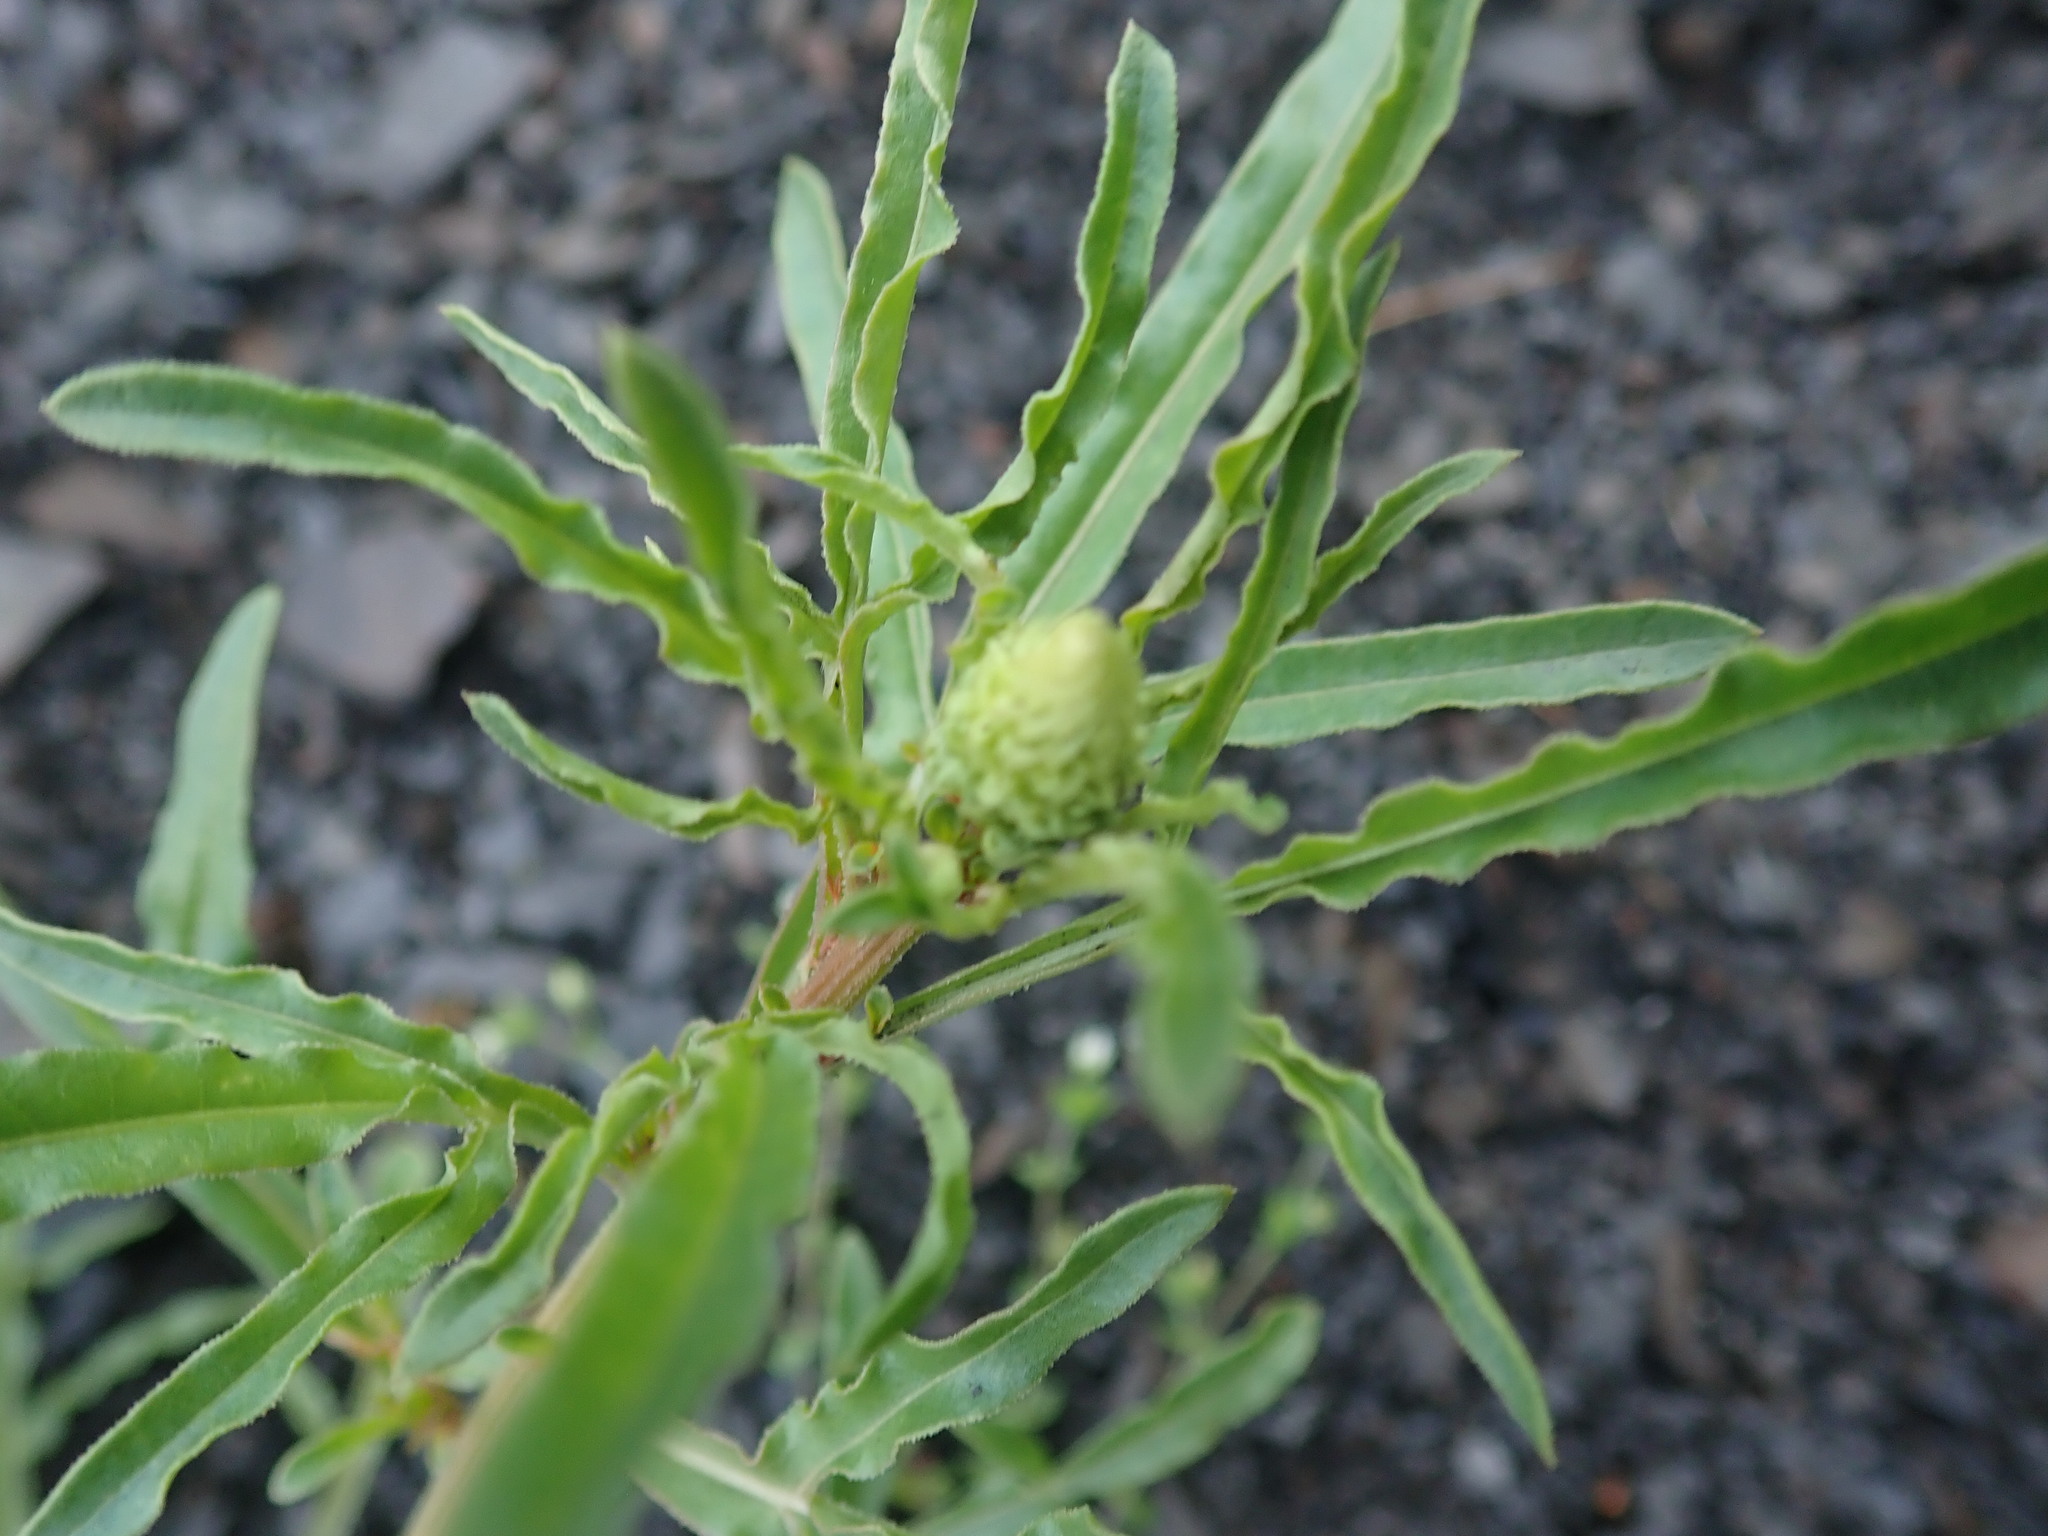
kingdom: Plantae
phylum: Tracheophyta
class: Magnoliopsida
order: Brassicales
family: Resedaceae
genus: Reseda
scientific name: Reseda lutea
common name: Wild mignonette
